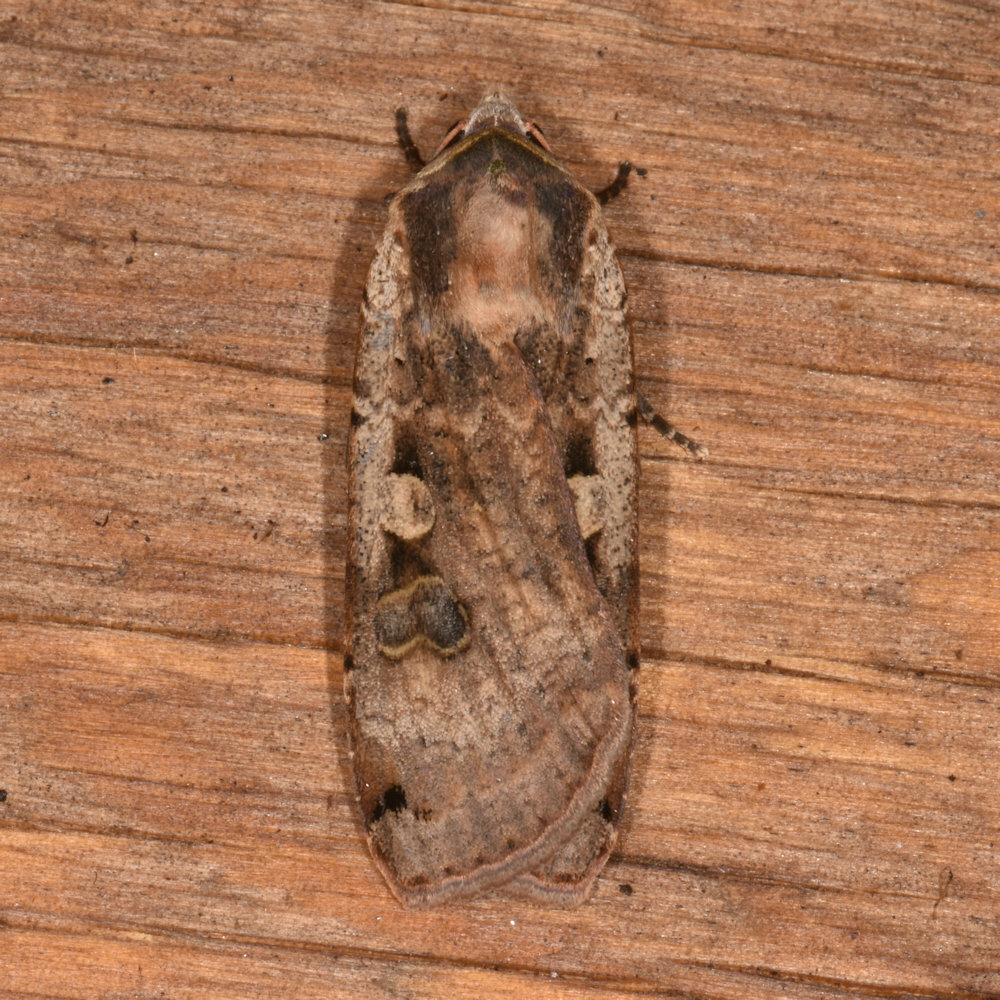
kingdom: Animalia
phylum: Arthropoda
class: Insecta
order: Lepidoptera
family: Noctuidae
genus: Noctua
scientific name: Noctua pronuba
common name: Large yellow underwing
